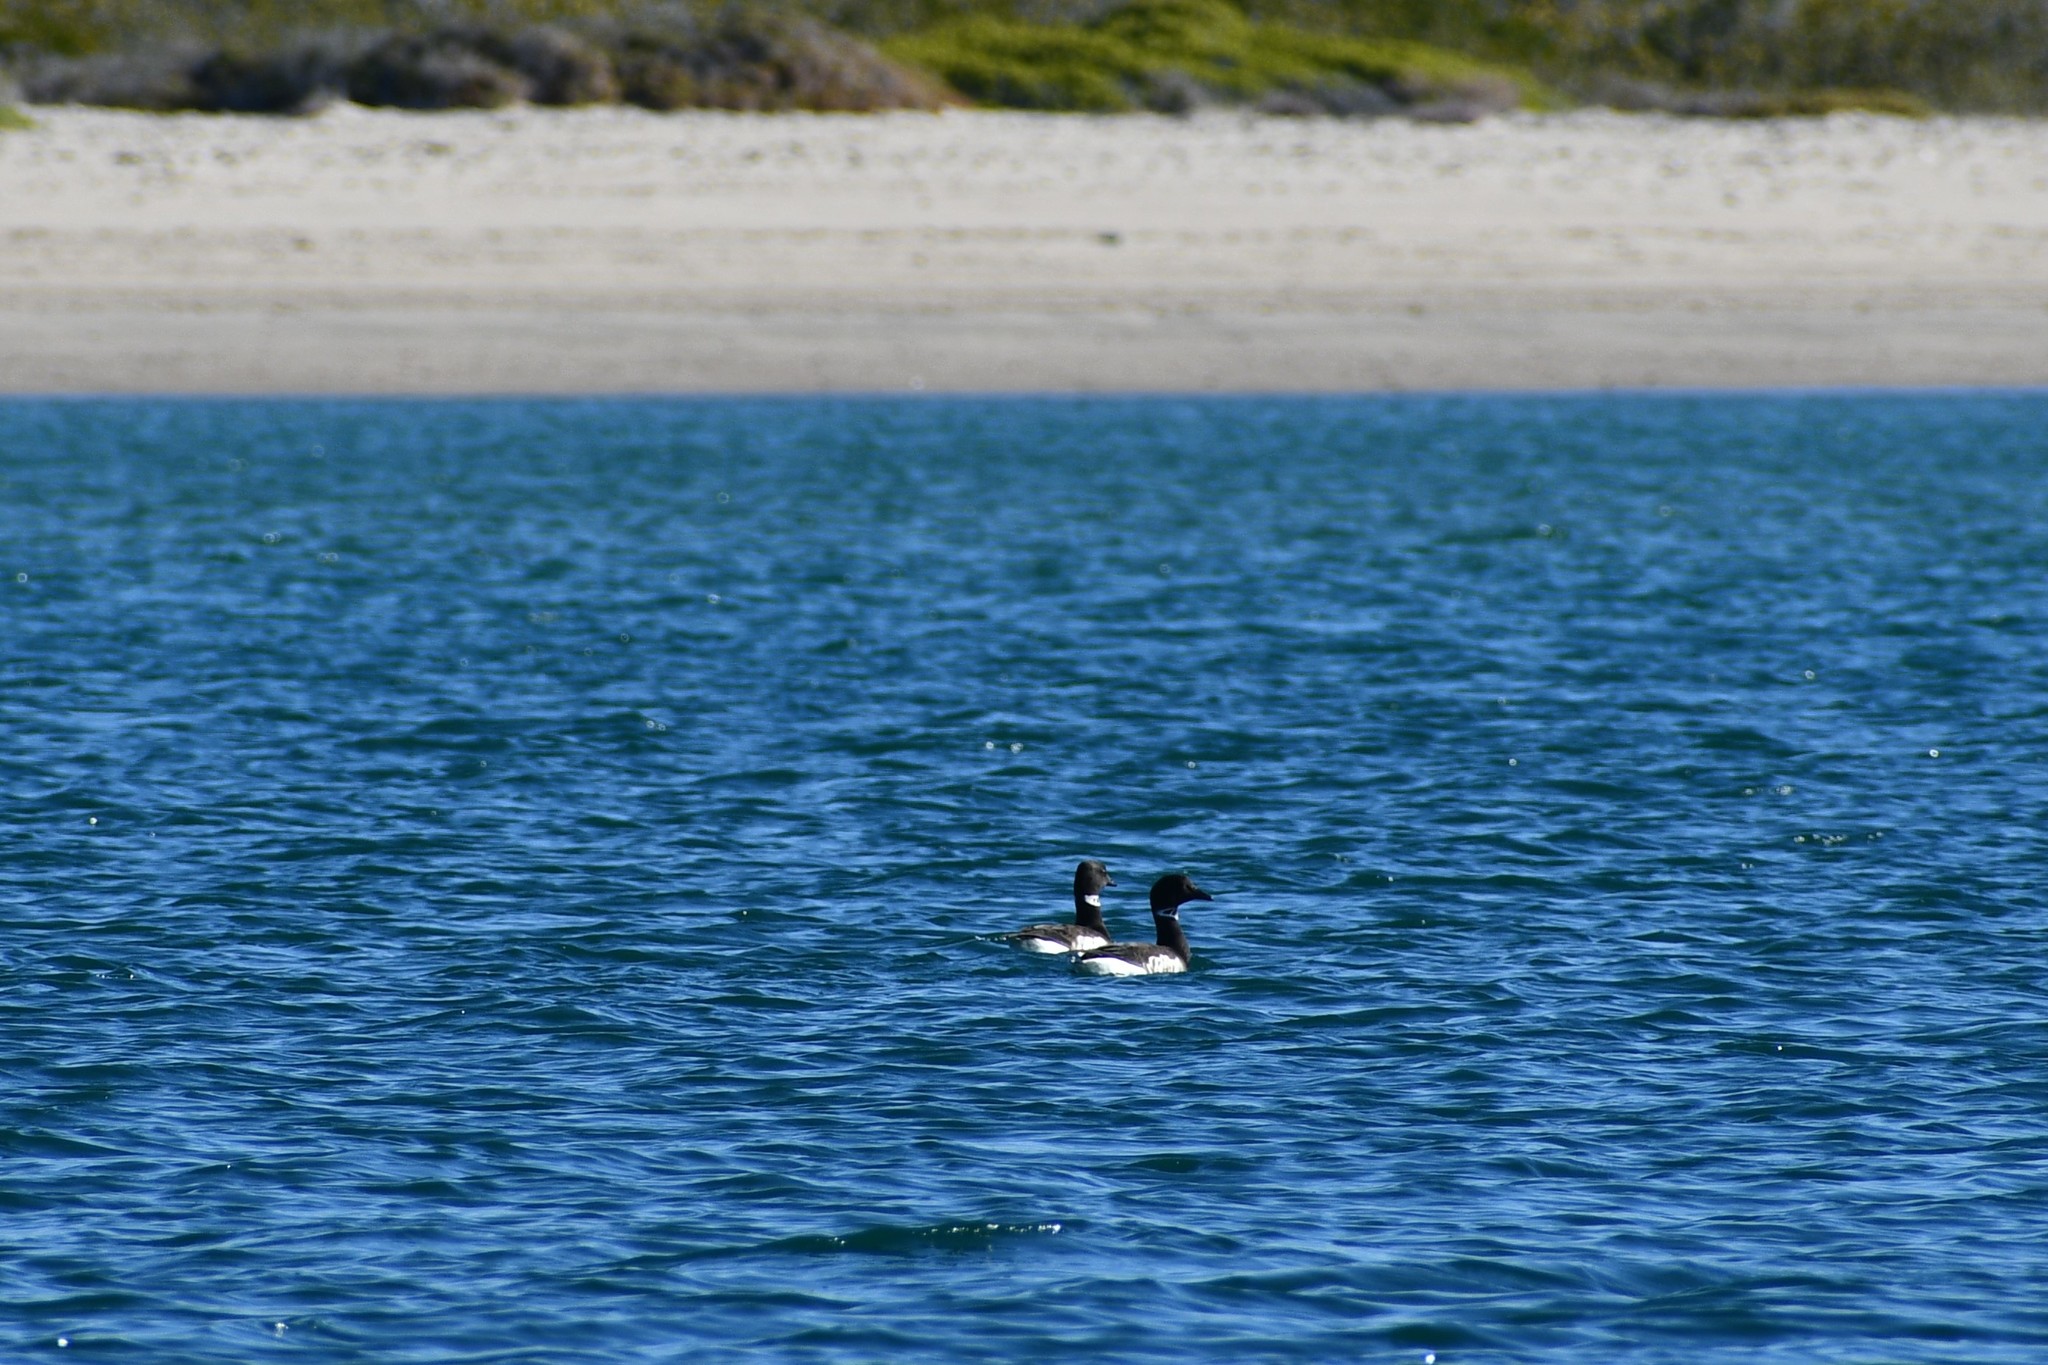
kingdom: Animalia
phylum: Chordata
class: Aves
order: Anseriformes
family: Anatidae
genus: Branta
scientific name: Branta bernicla
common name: Brant goose
